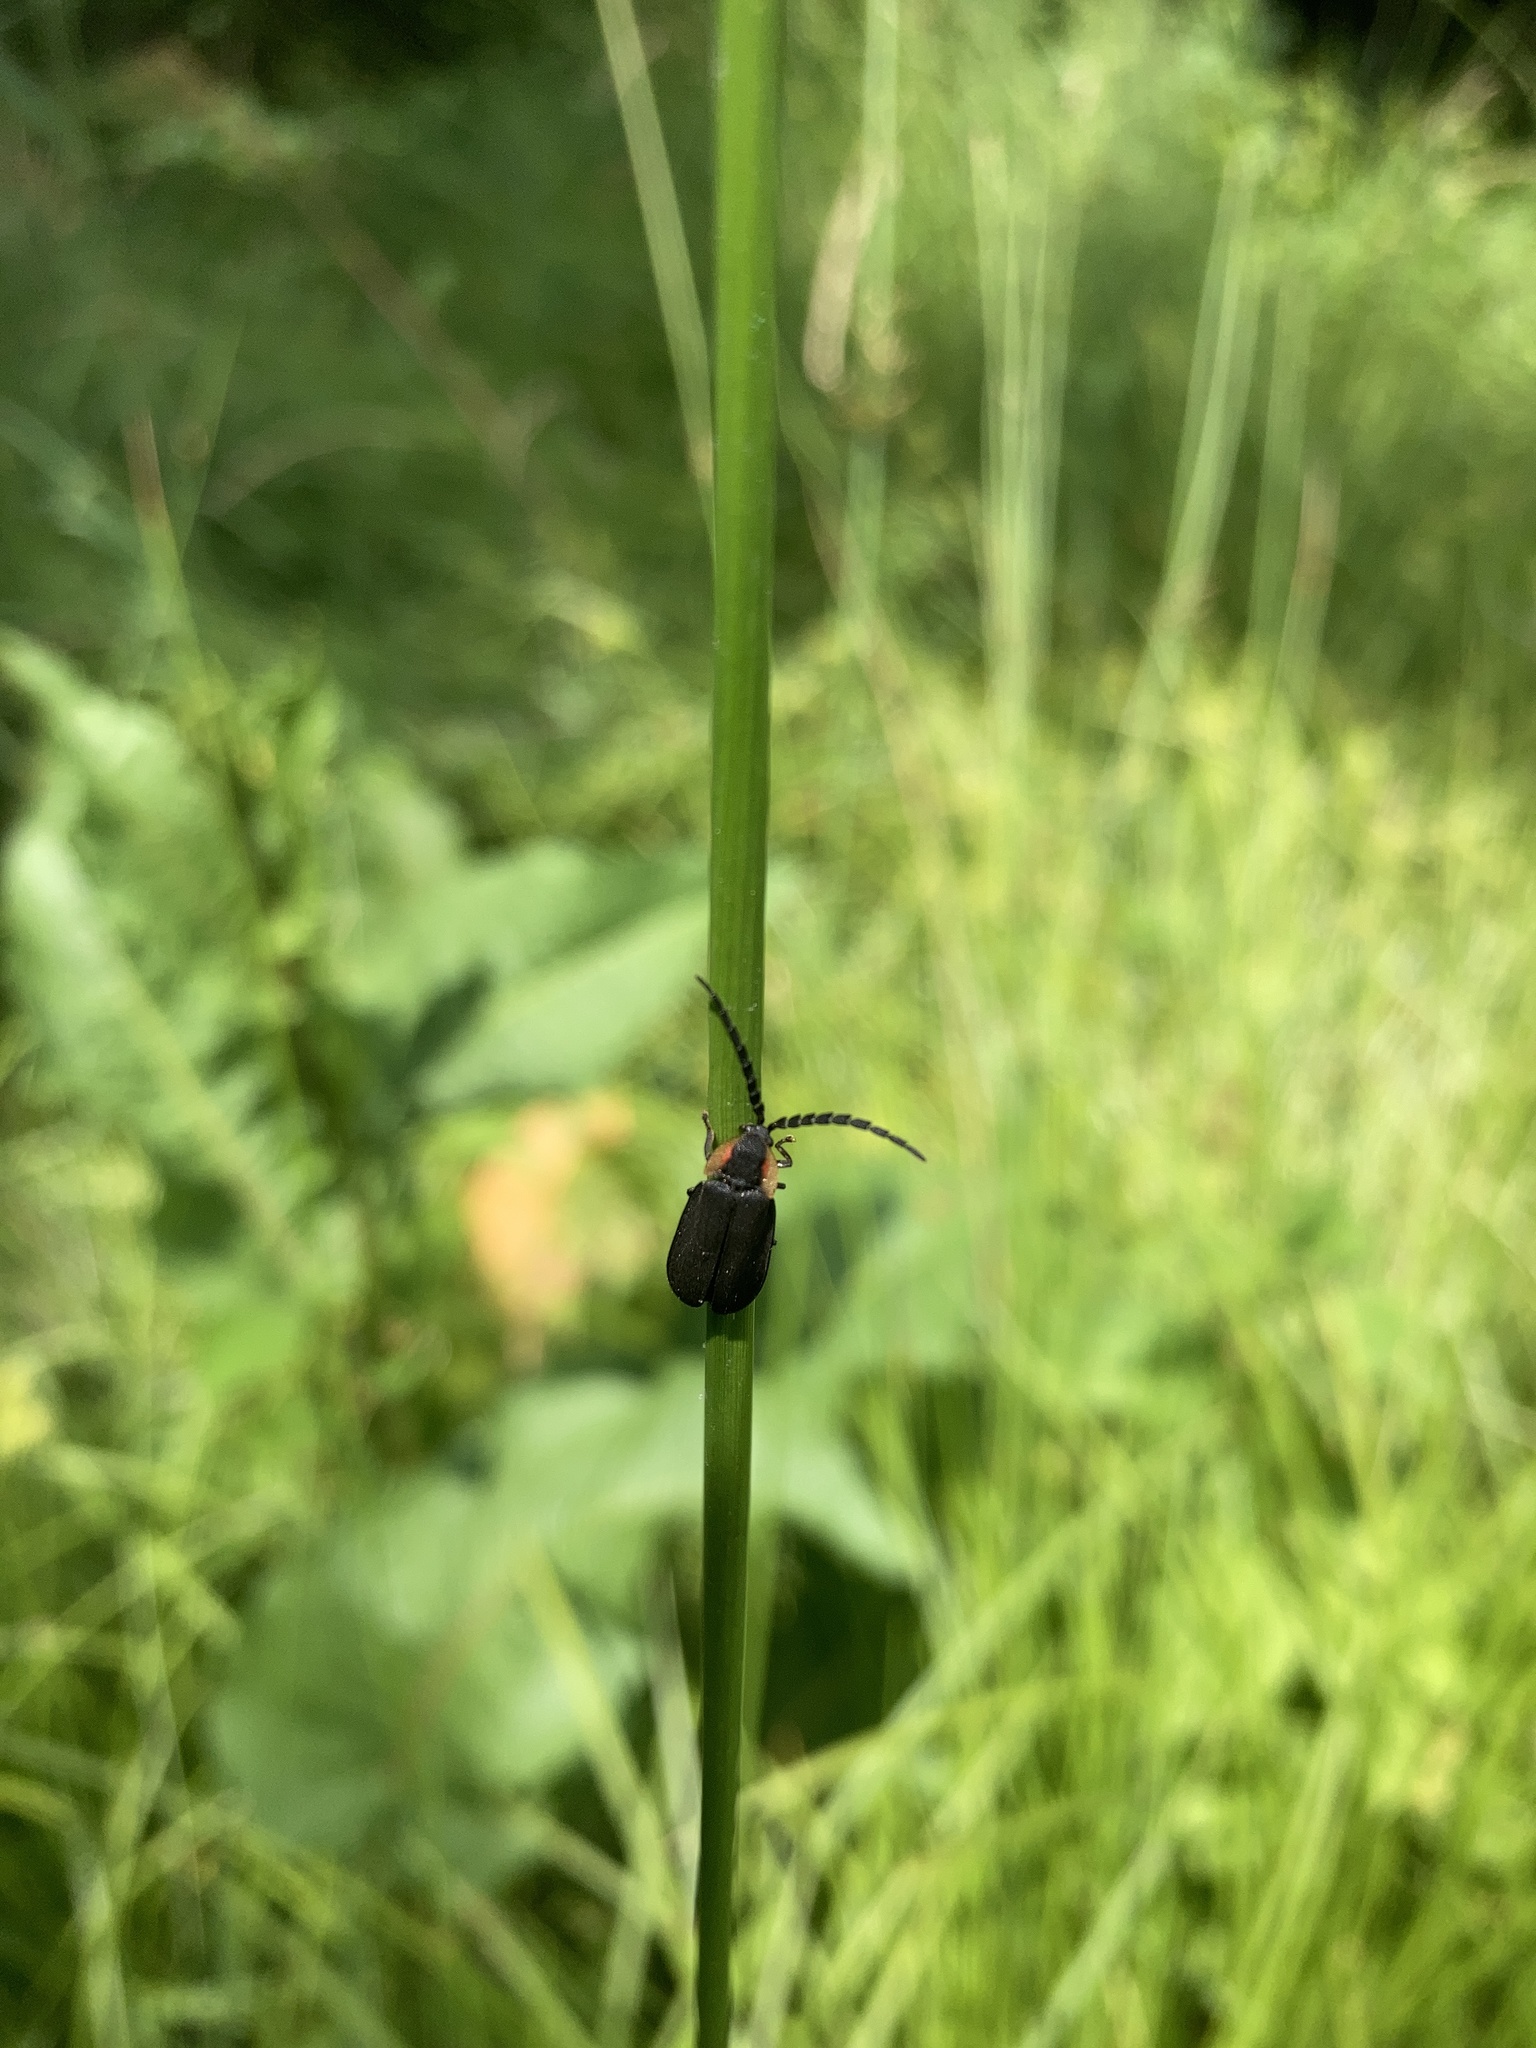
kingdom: Animalia
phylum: Arthropoda
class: Insecta
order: Coleoptera
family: Lampyridae
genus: Lucidota
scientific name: Lucidota atra
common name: Black firefly
